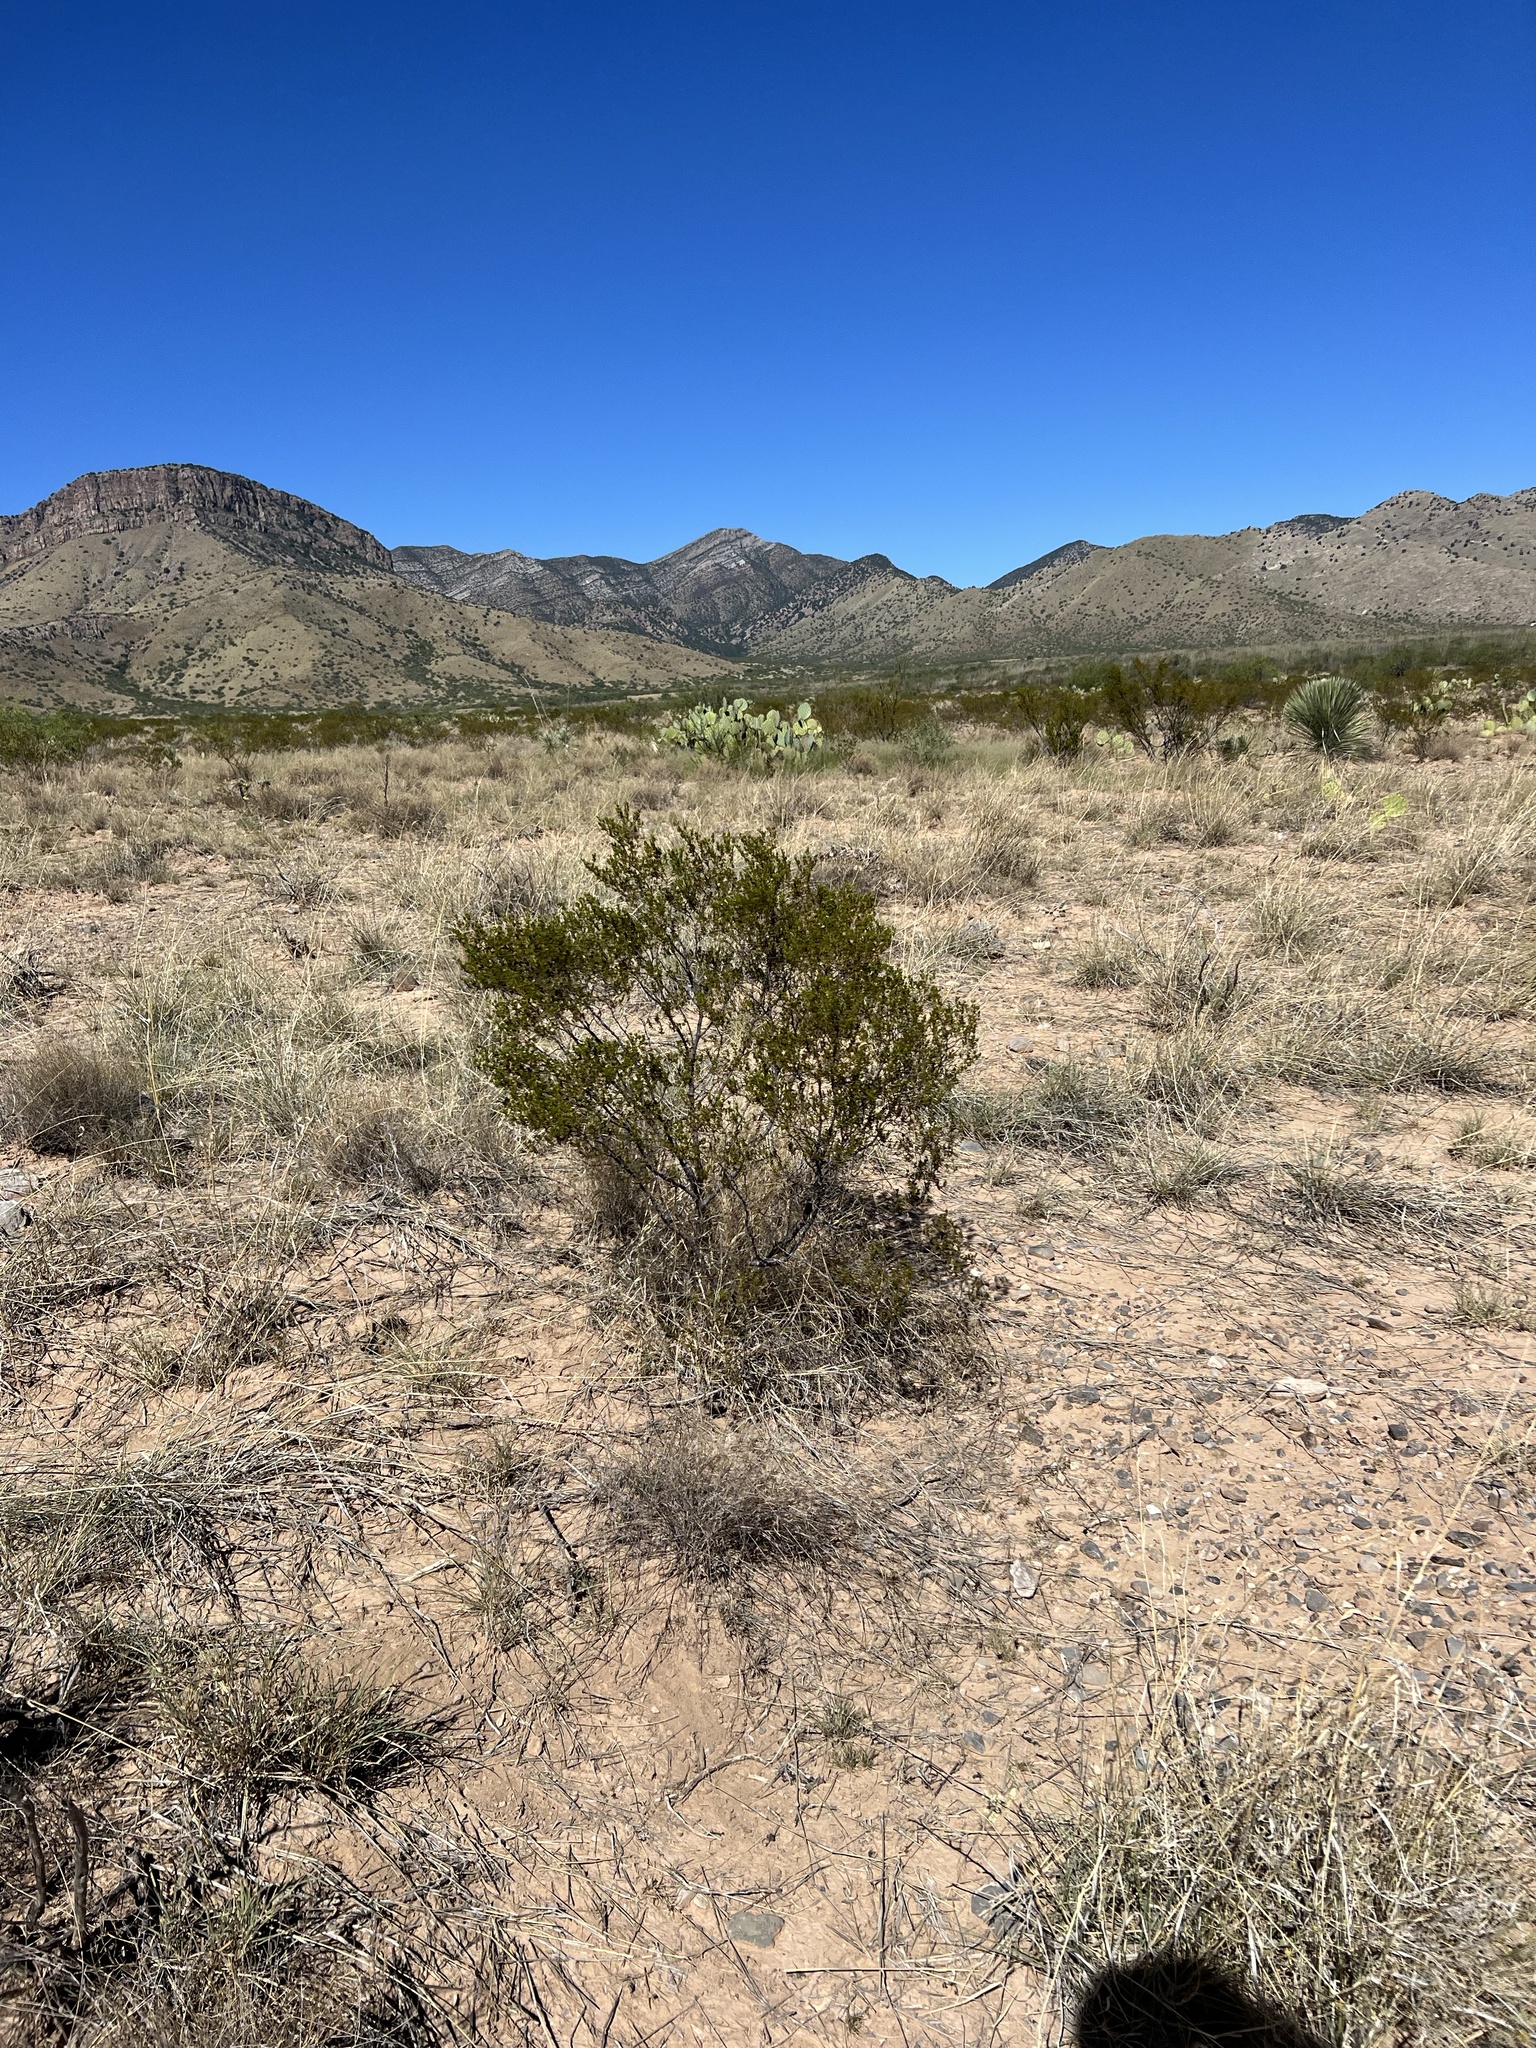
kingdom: Plantae
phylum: Tracheophyta
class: Magnoliopsida
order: Zygophyllales
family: Zygophyllaceae
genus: Larrea
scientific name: Larrea tridentata
